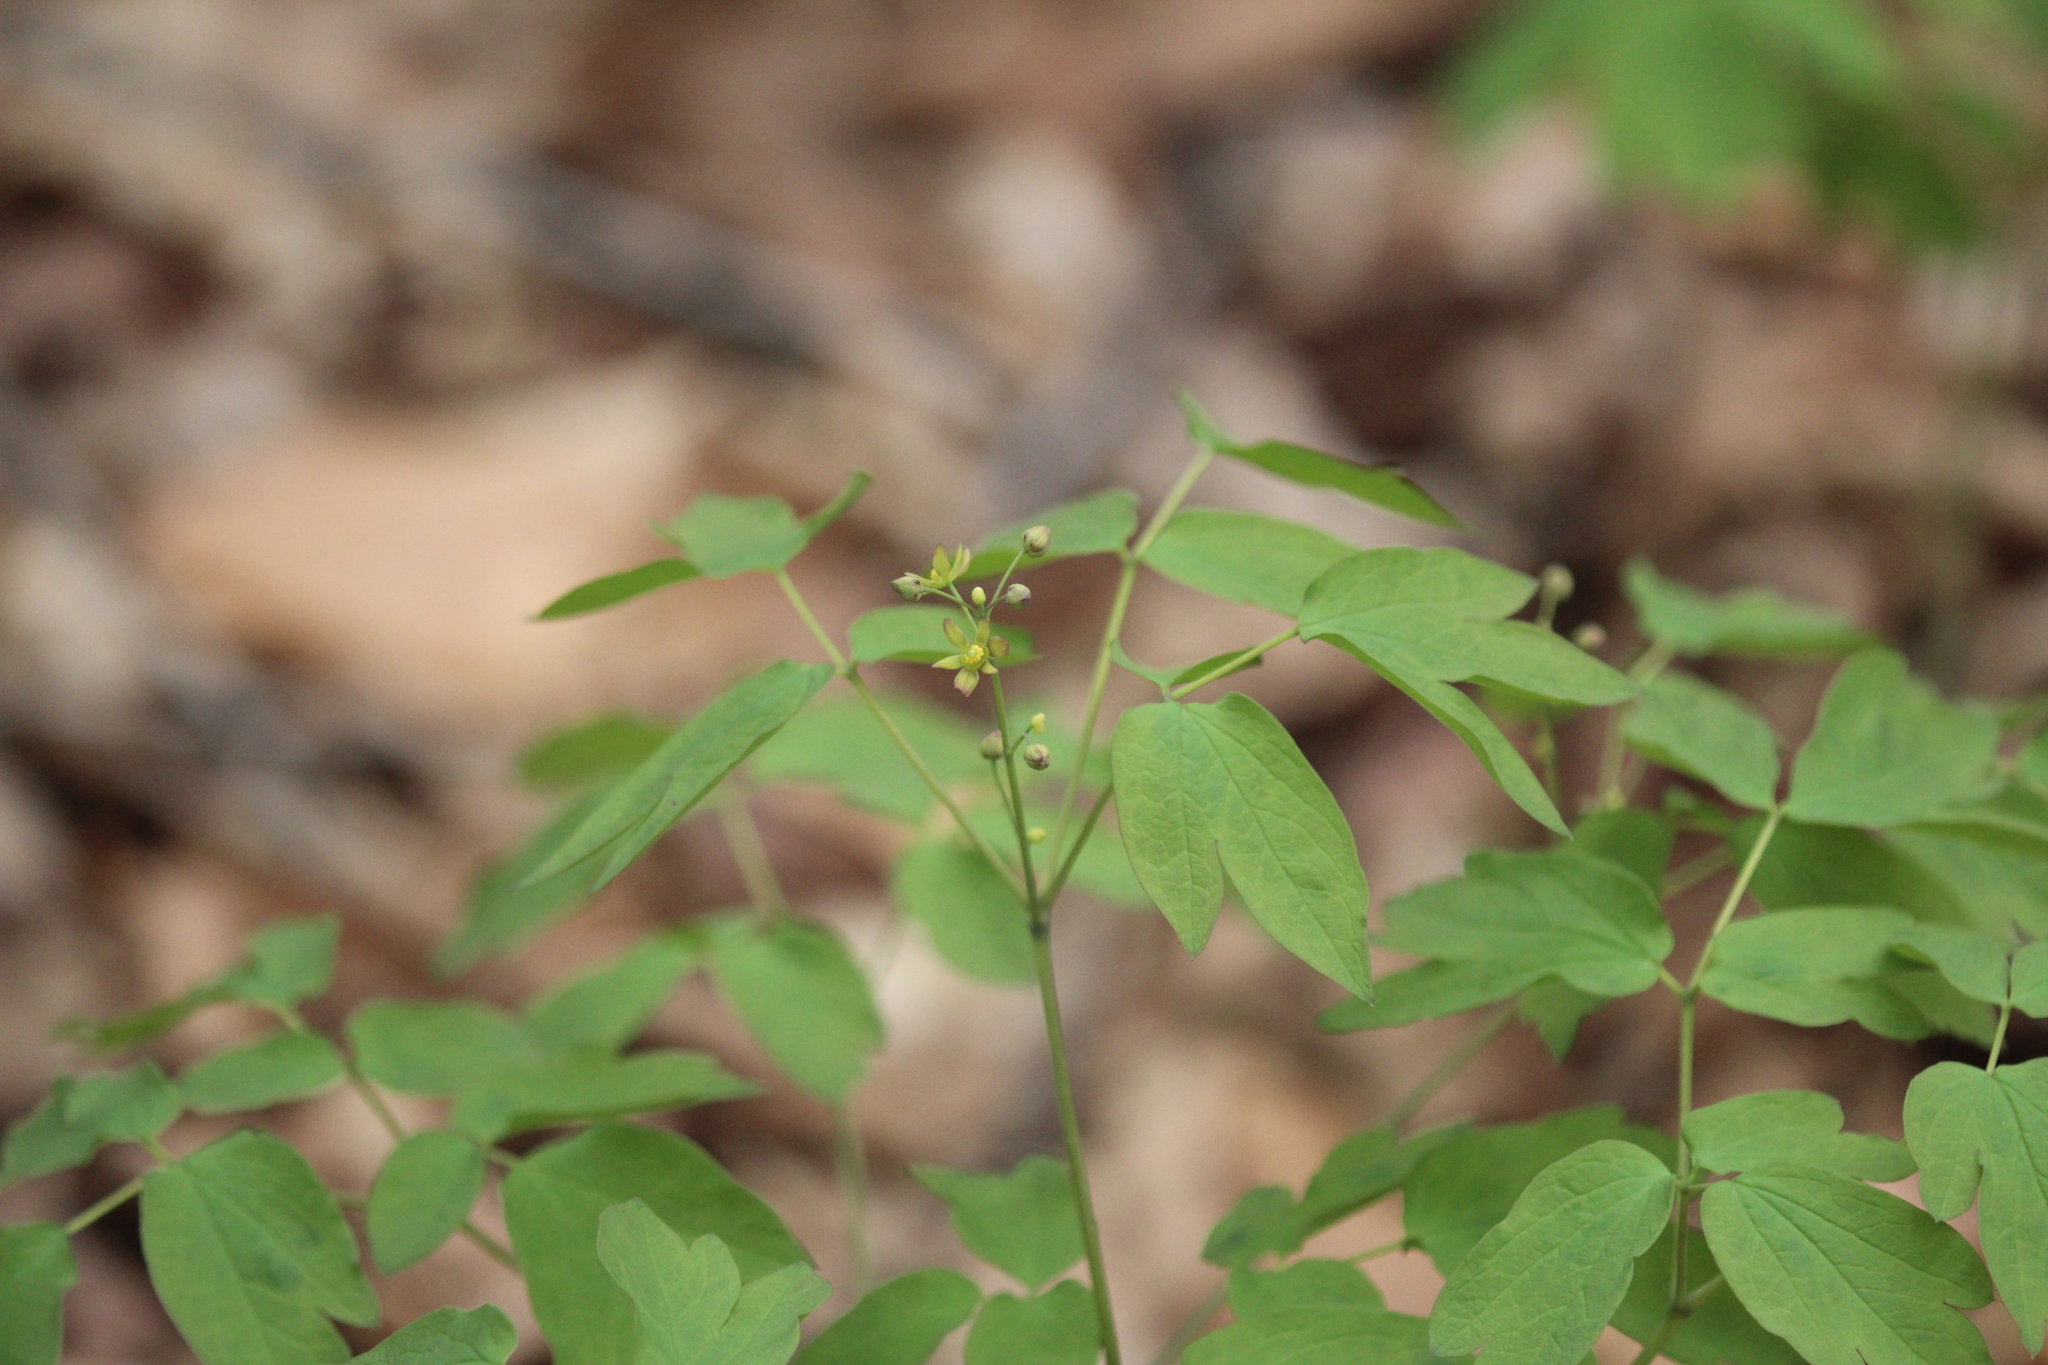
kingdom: Plantae
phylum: Tracheophyta
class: Magnoliopsida
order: Ranunculales
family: Berberidaceae
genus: Caulophyllum
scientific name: Caulophyllum thalictroides
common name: Blue cohosh
